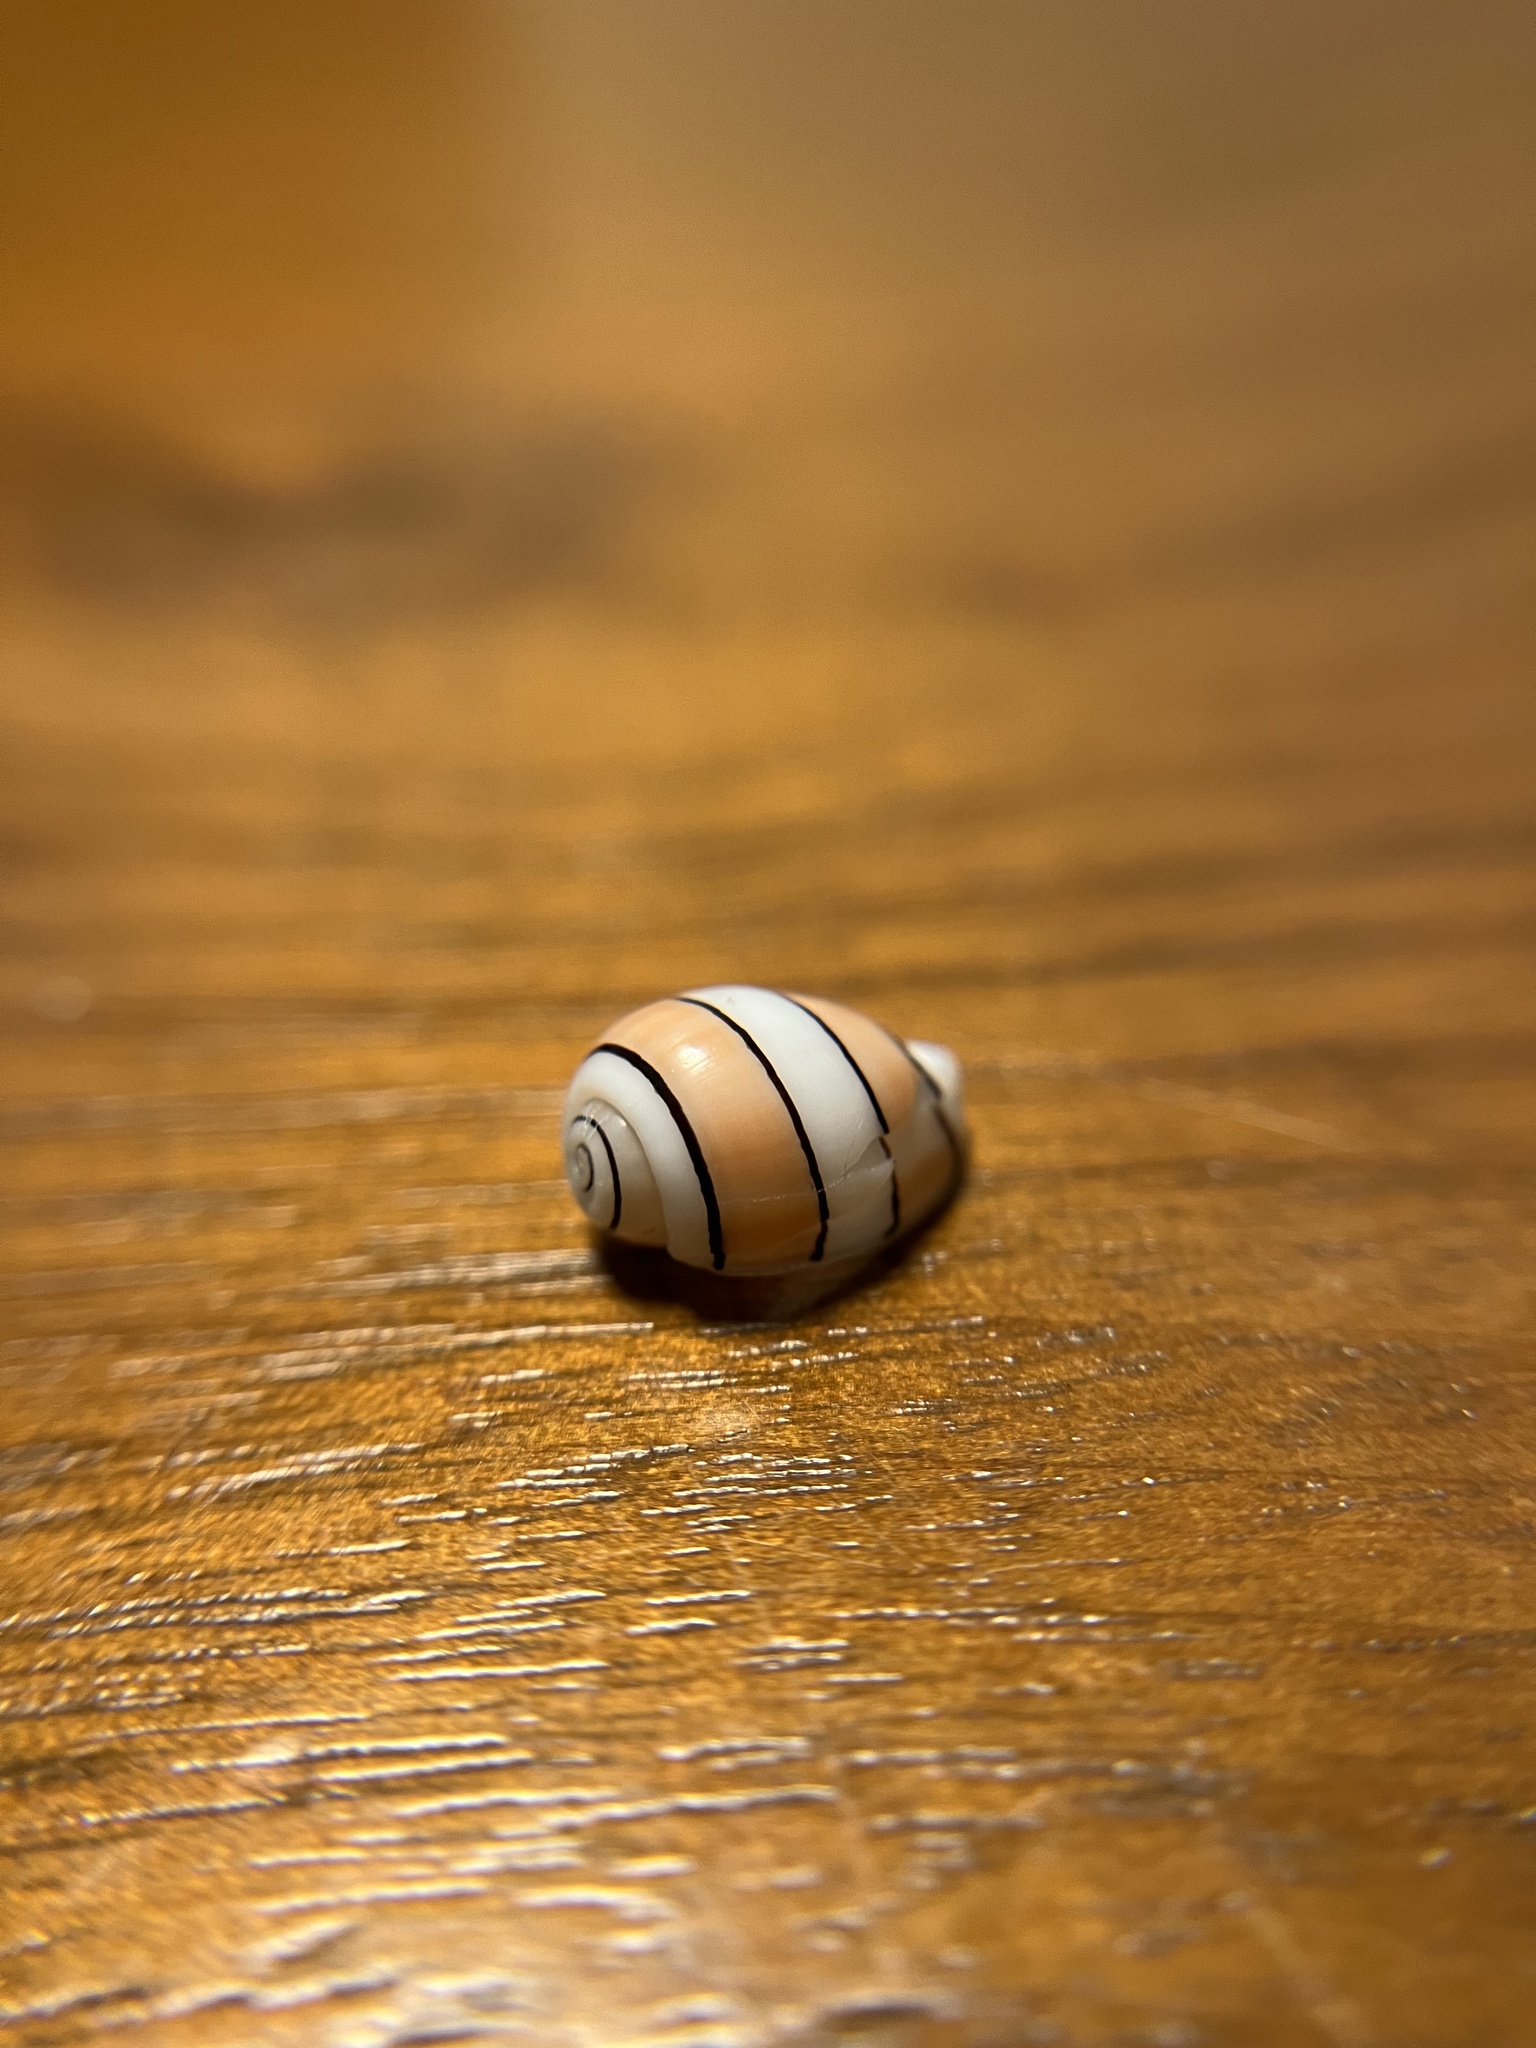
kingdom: Animalia
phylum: Mollusca
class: Gastropoda
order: Cephalaspidea
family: Aplustridae
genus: Aplustrum
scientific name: Aplustrum amplustre
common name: Royal paperbubble
